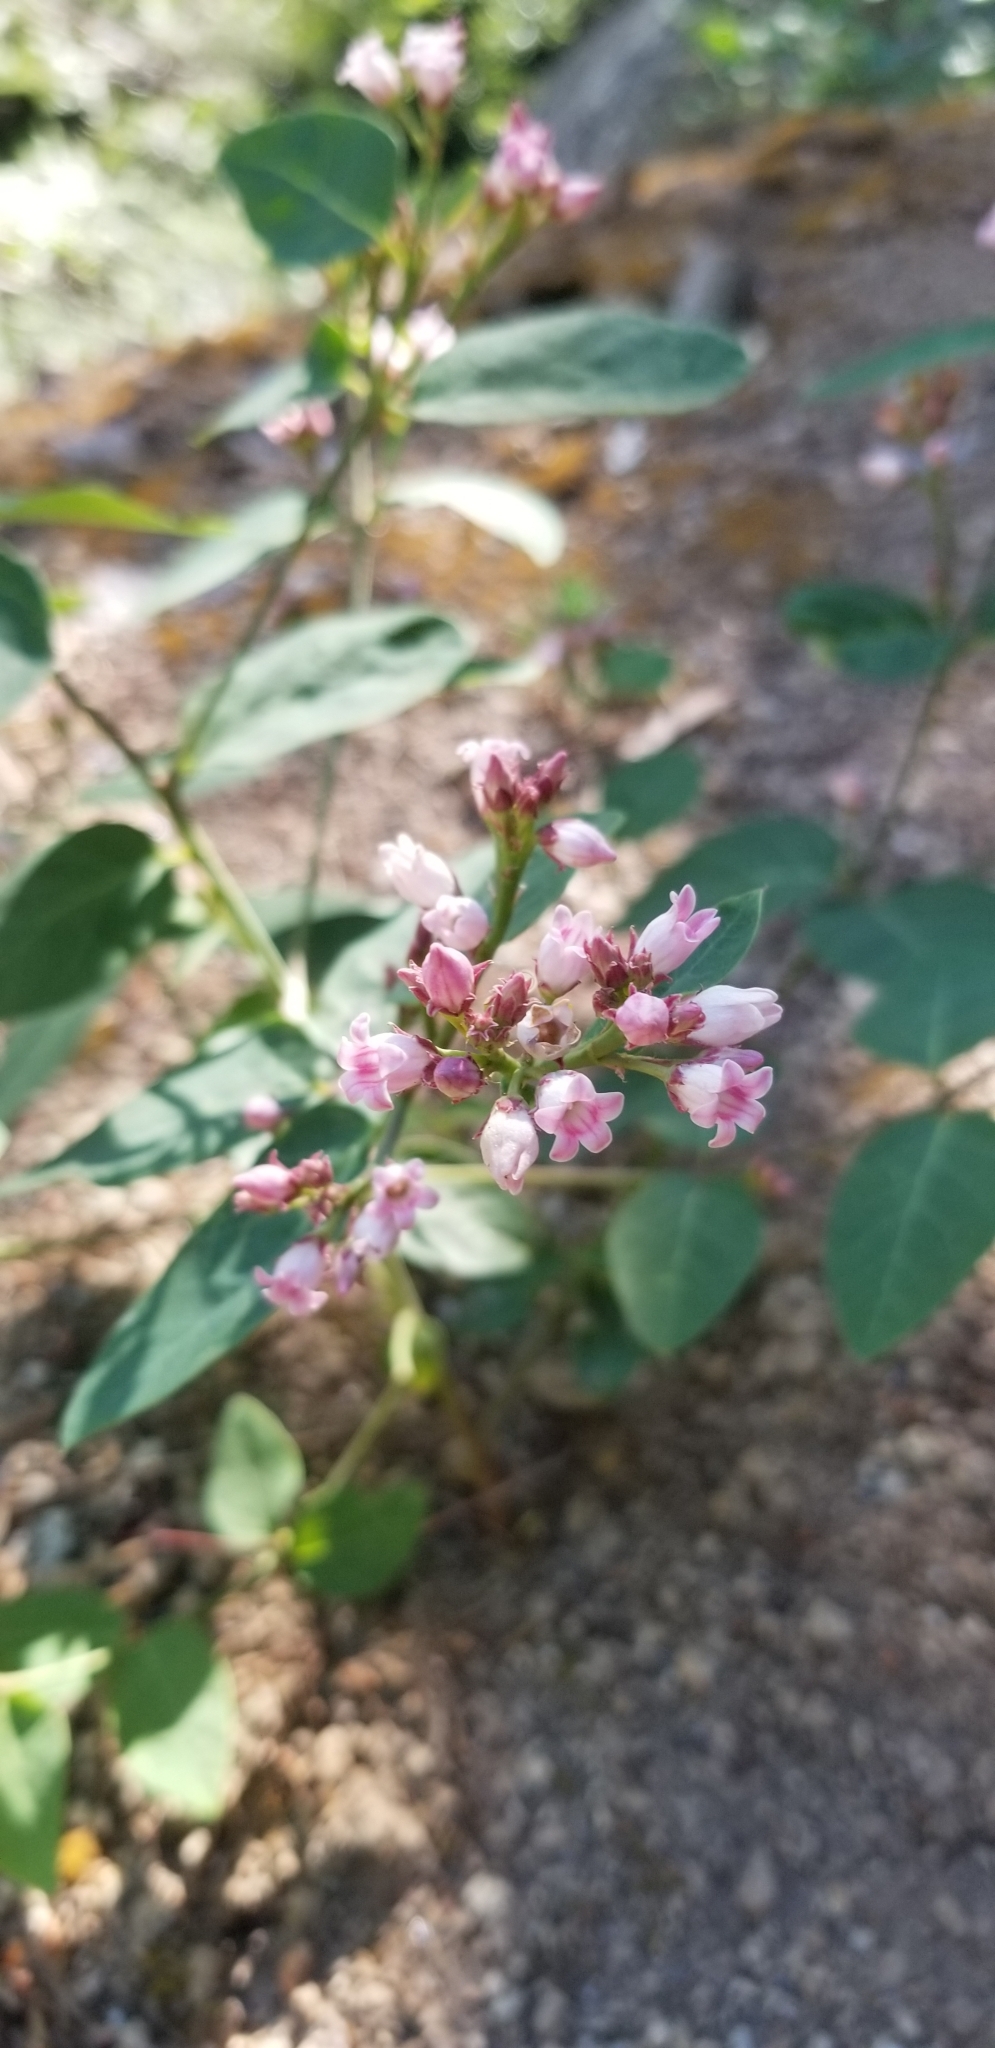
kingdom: Plantae
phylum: Tracheophyta
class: Magnoliopsida
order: Gentianales
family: Apocynaceae
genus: Apocynum
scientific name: Apocynum androsaemifolium
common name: Spreading dogbane
